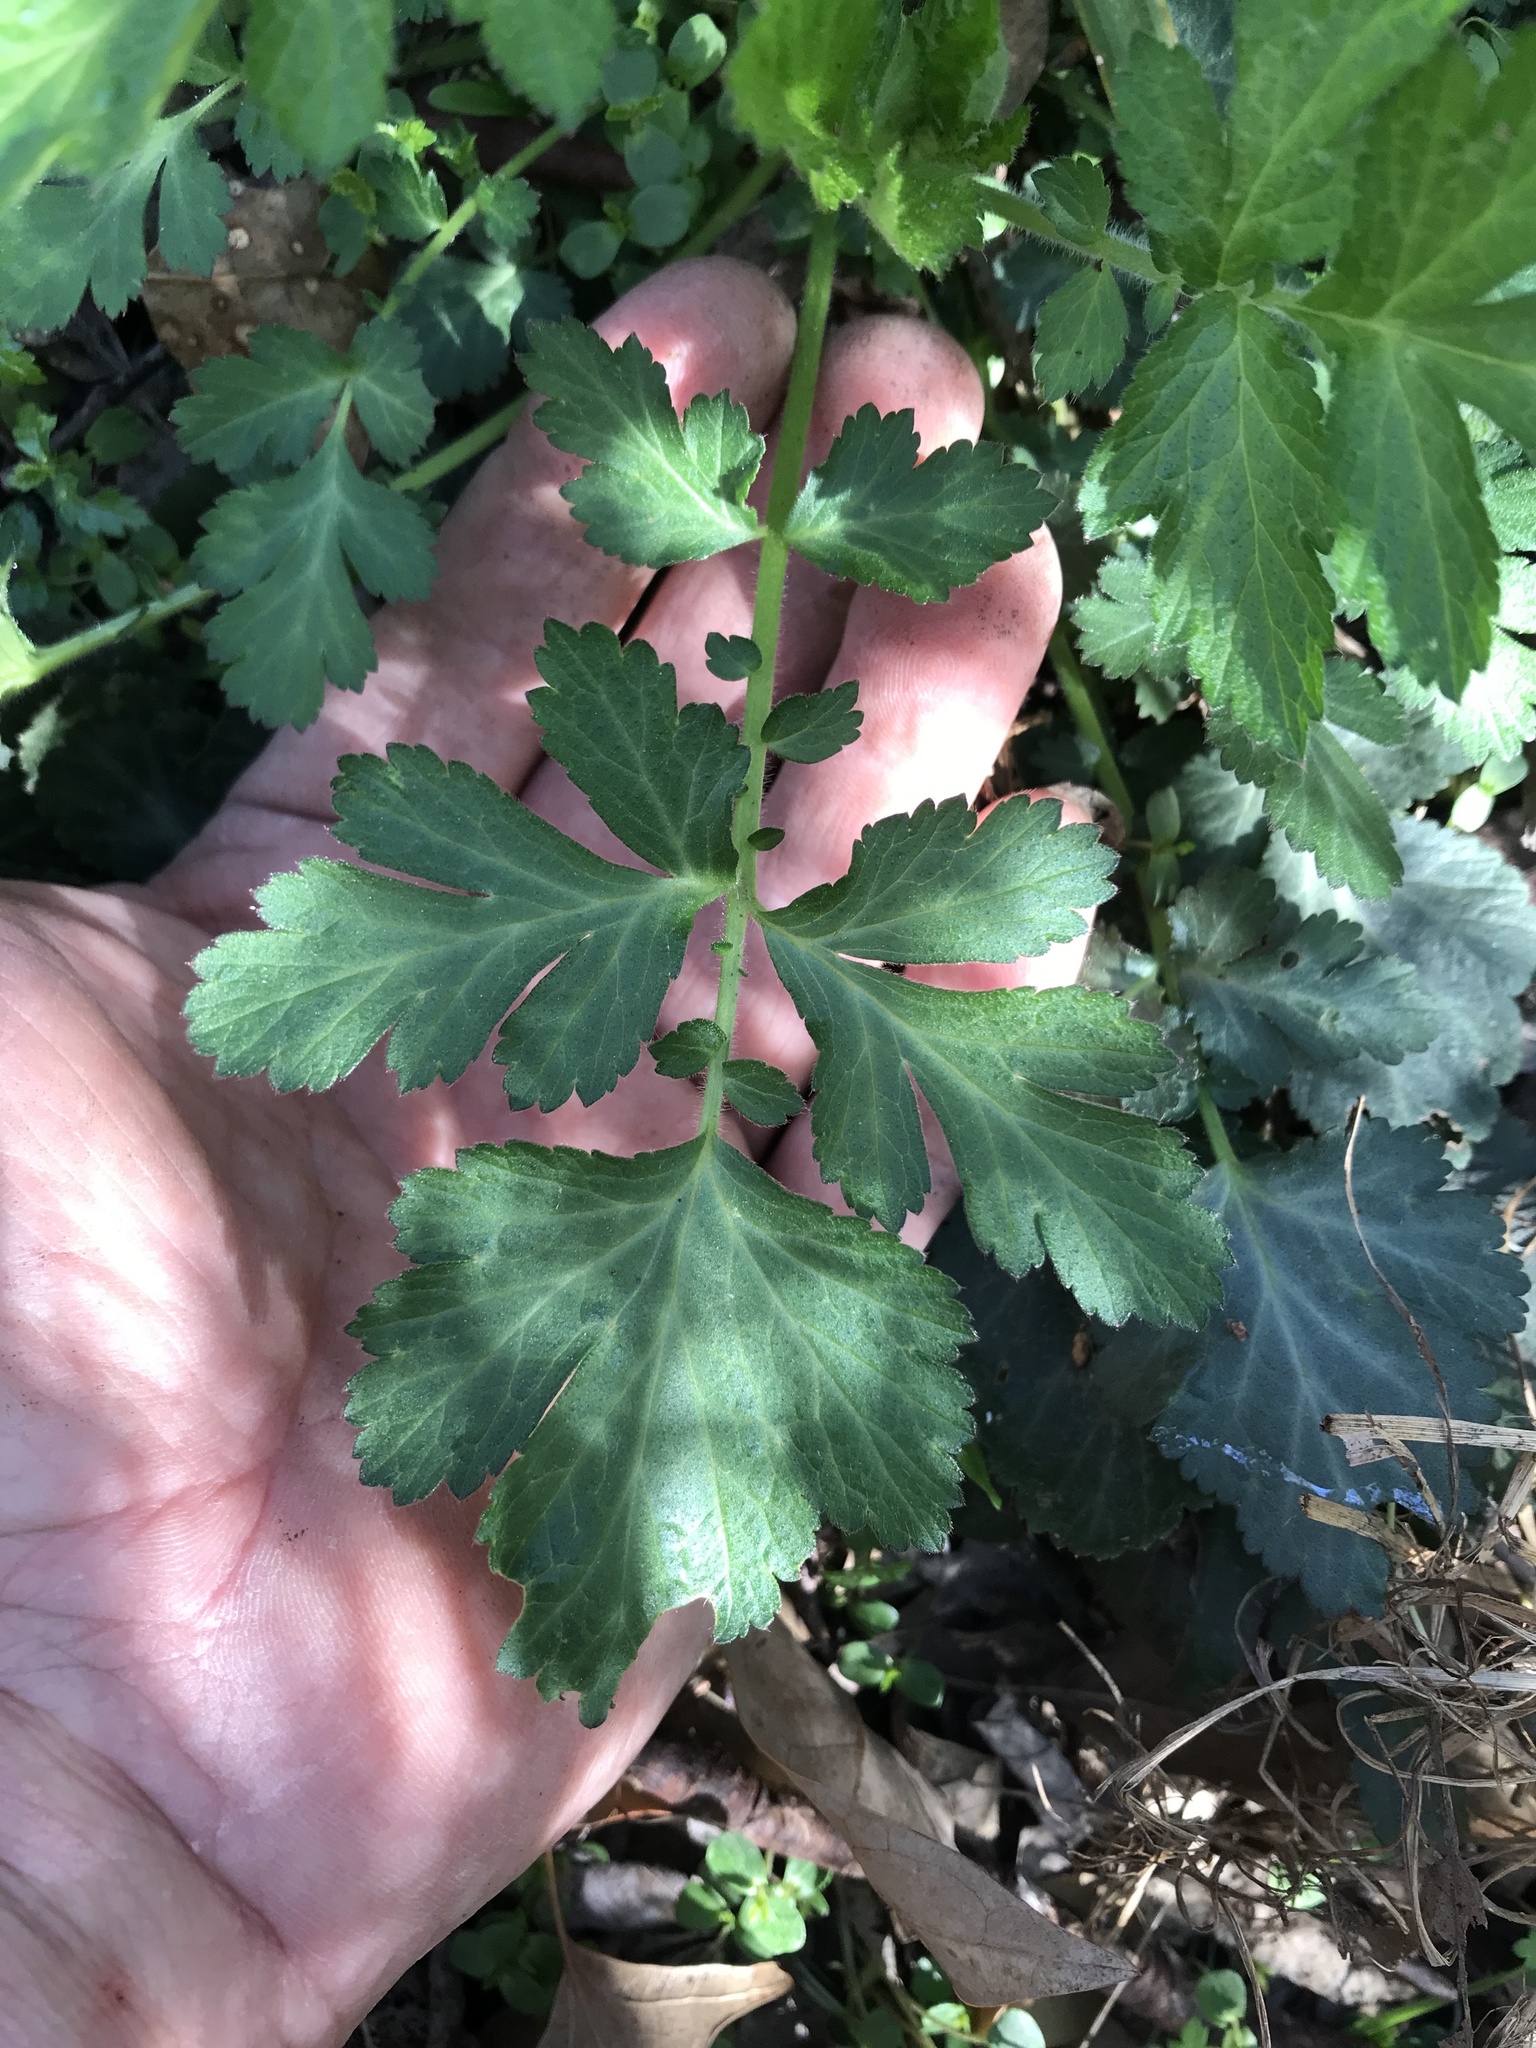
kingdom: Plantae
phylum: Tracheophyta
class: Magnoliopsida
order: Rosales
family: Rosaceae
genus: Geum
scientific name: Geum canadense
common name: White avens
